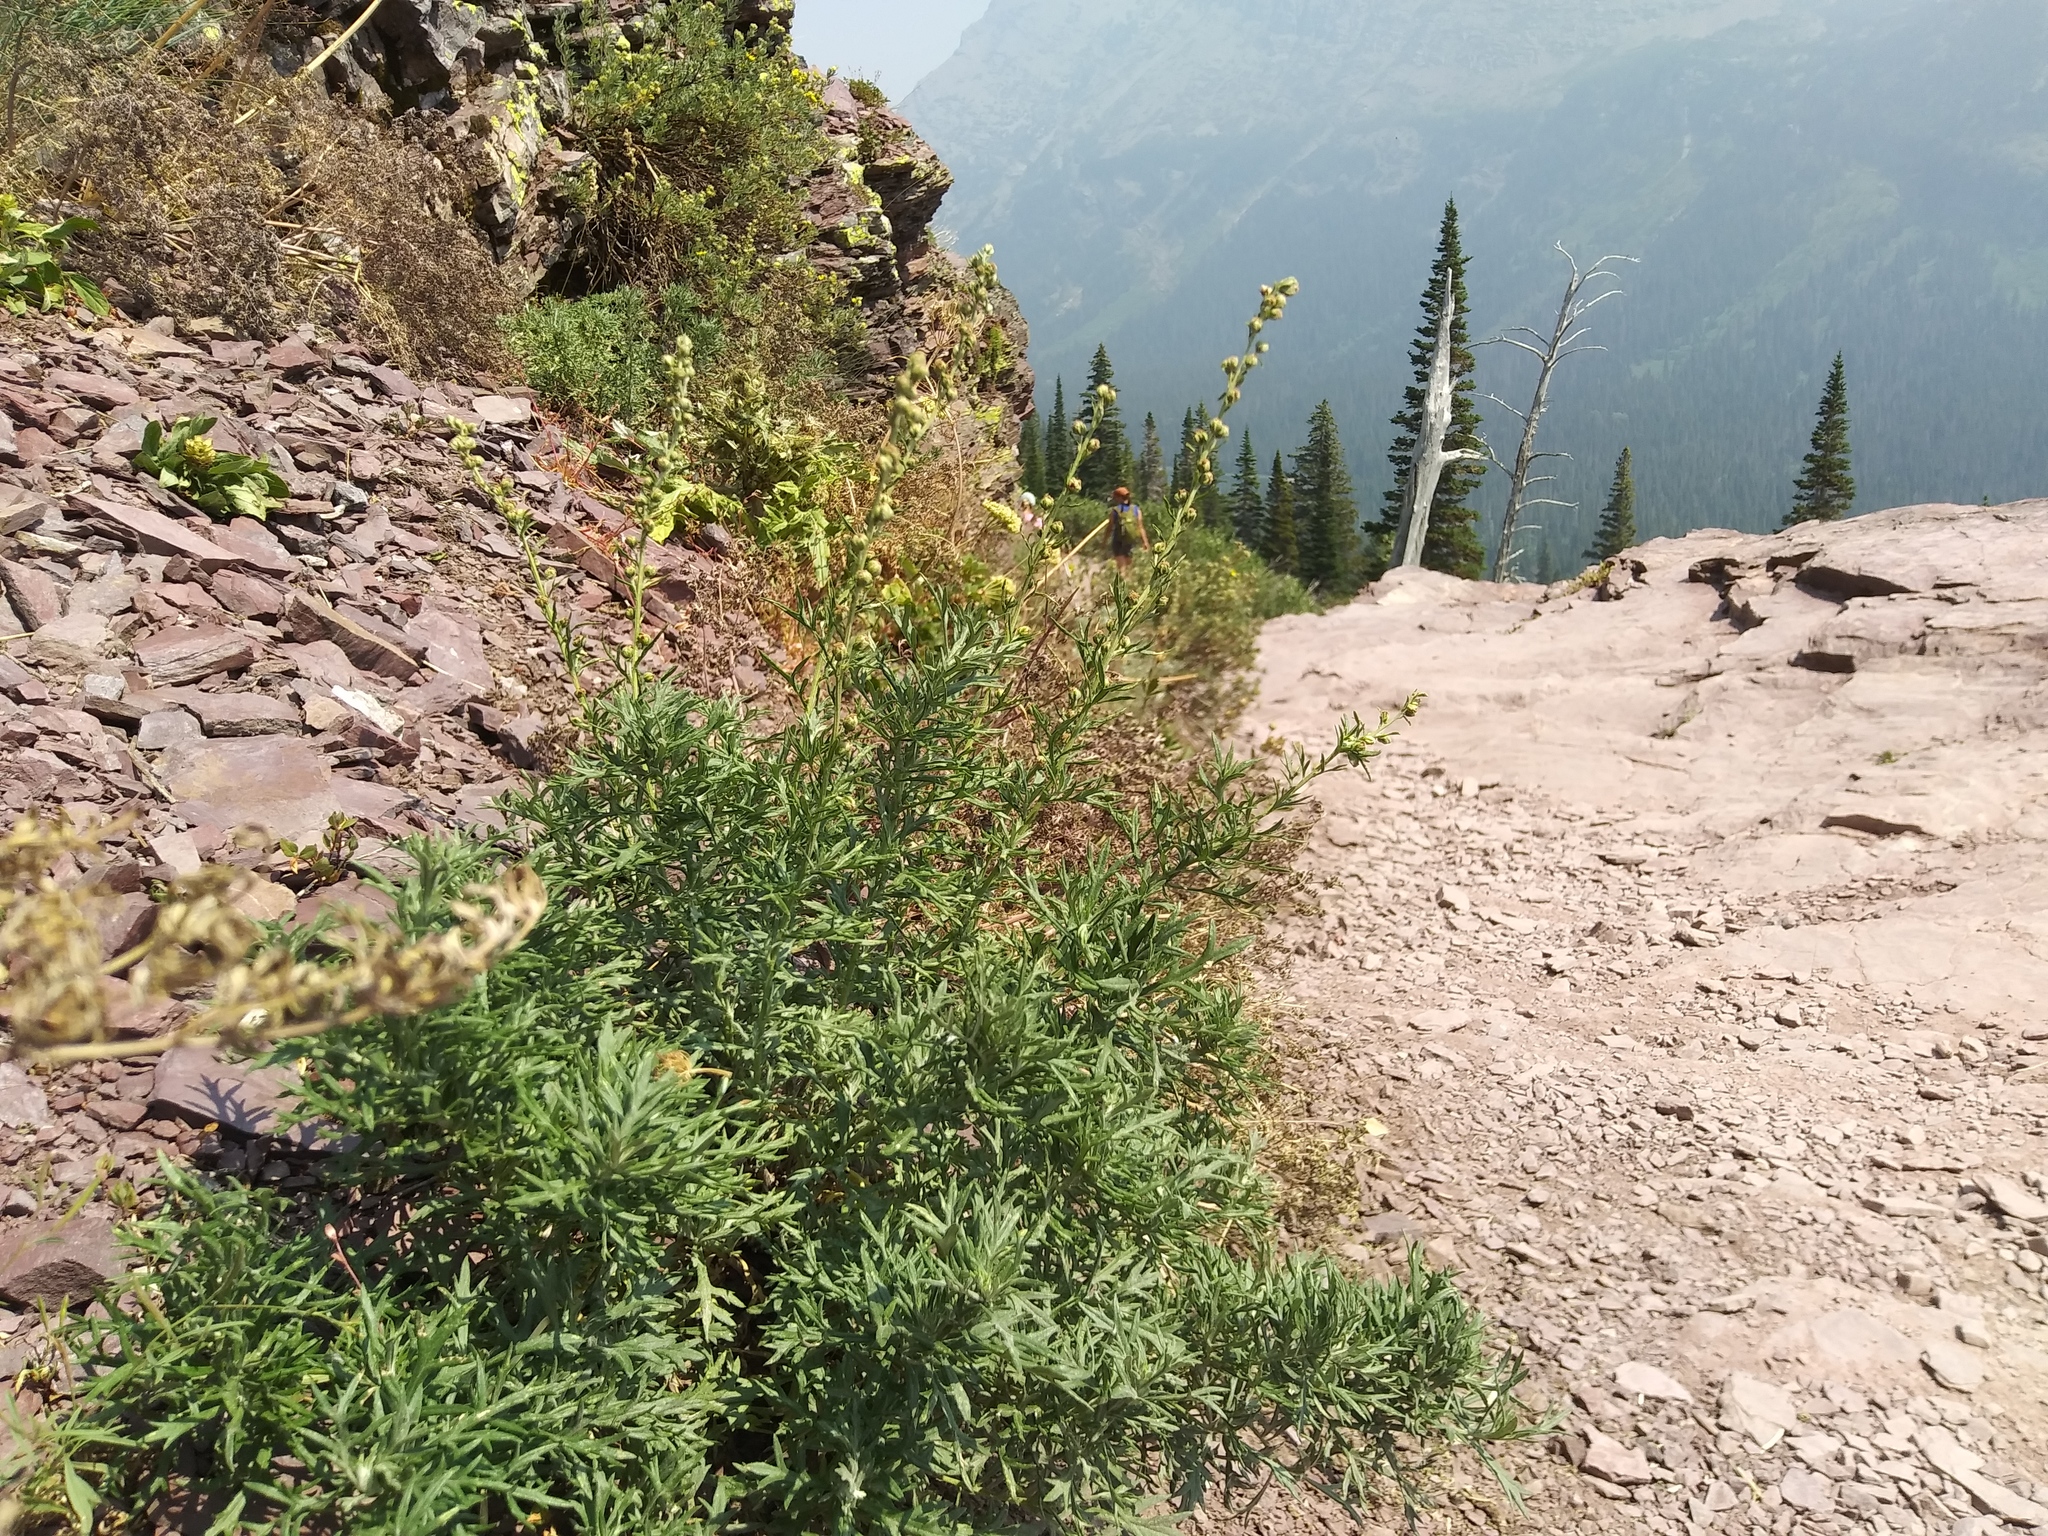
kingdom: Plantae
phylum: Tracheophyta
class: Magnoliopsida
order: Asterales
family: Asteraceae
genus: Artemisia
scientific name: Artemisia michauxiana
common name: Lemon sagewort
